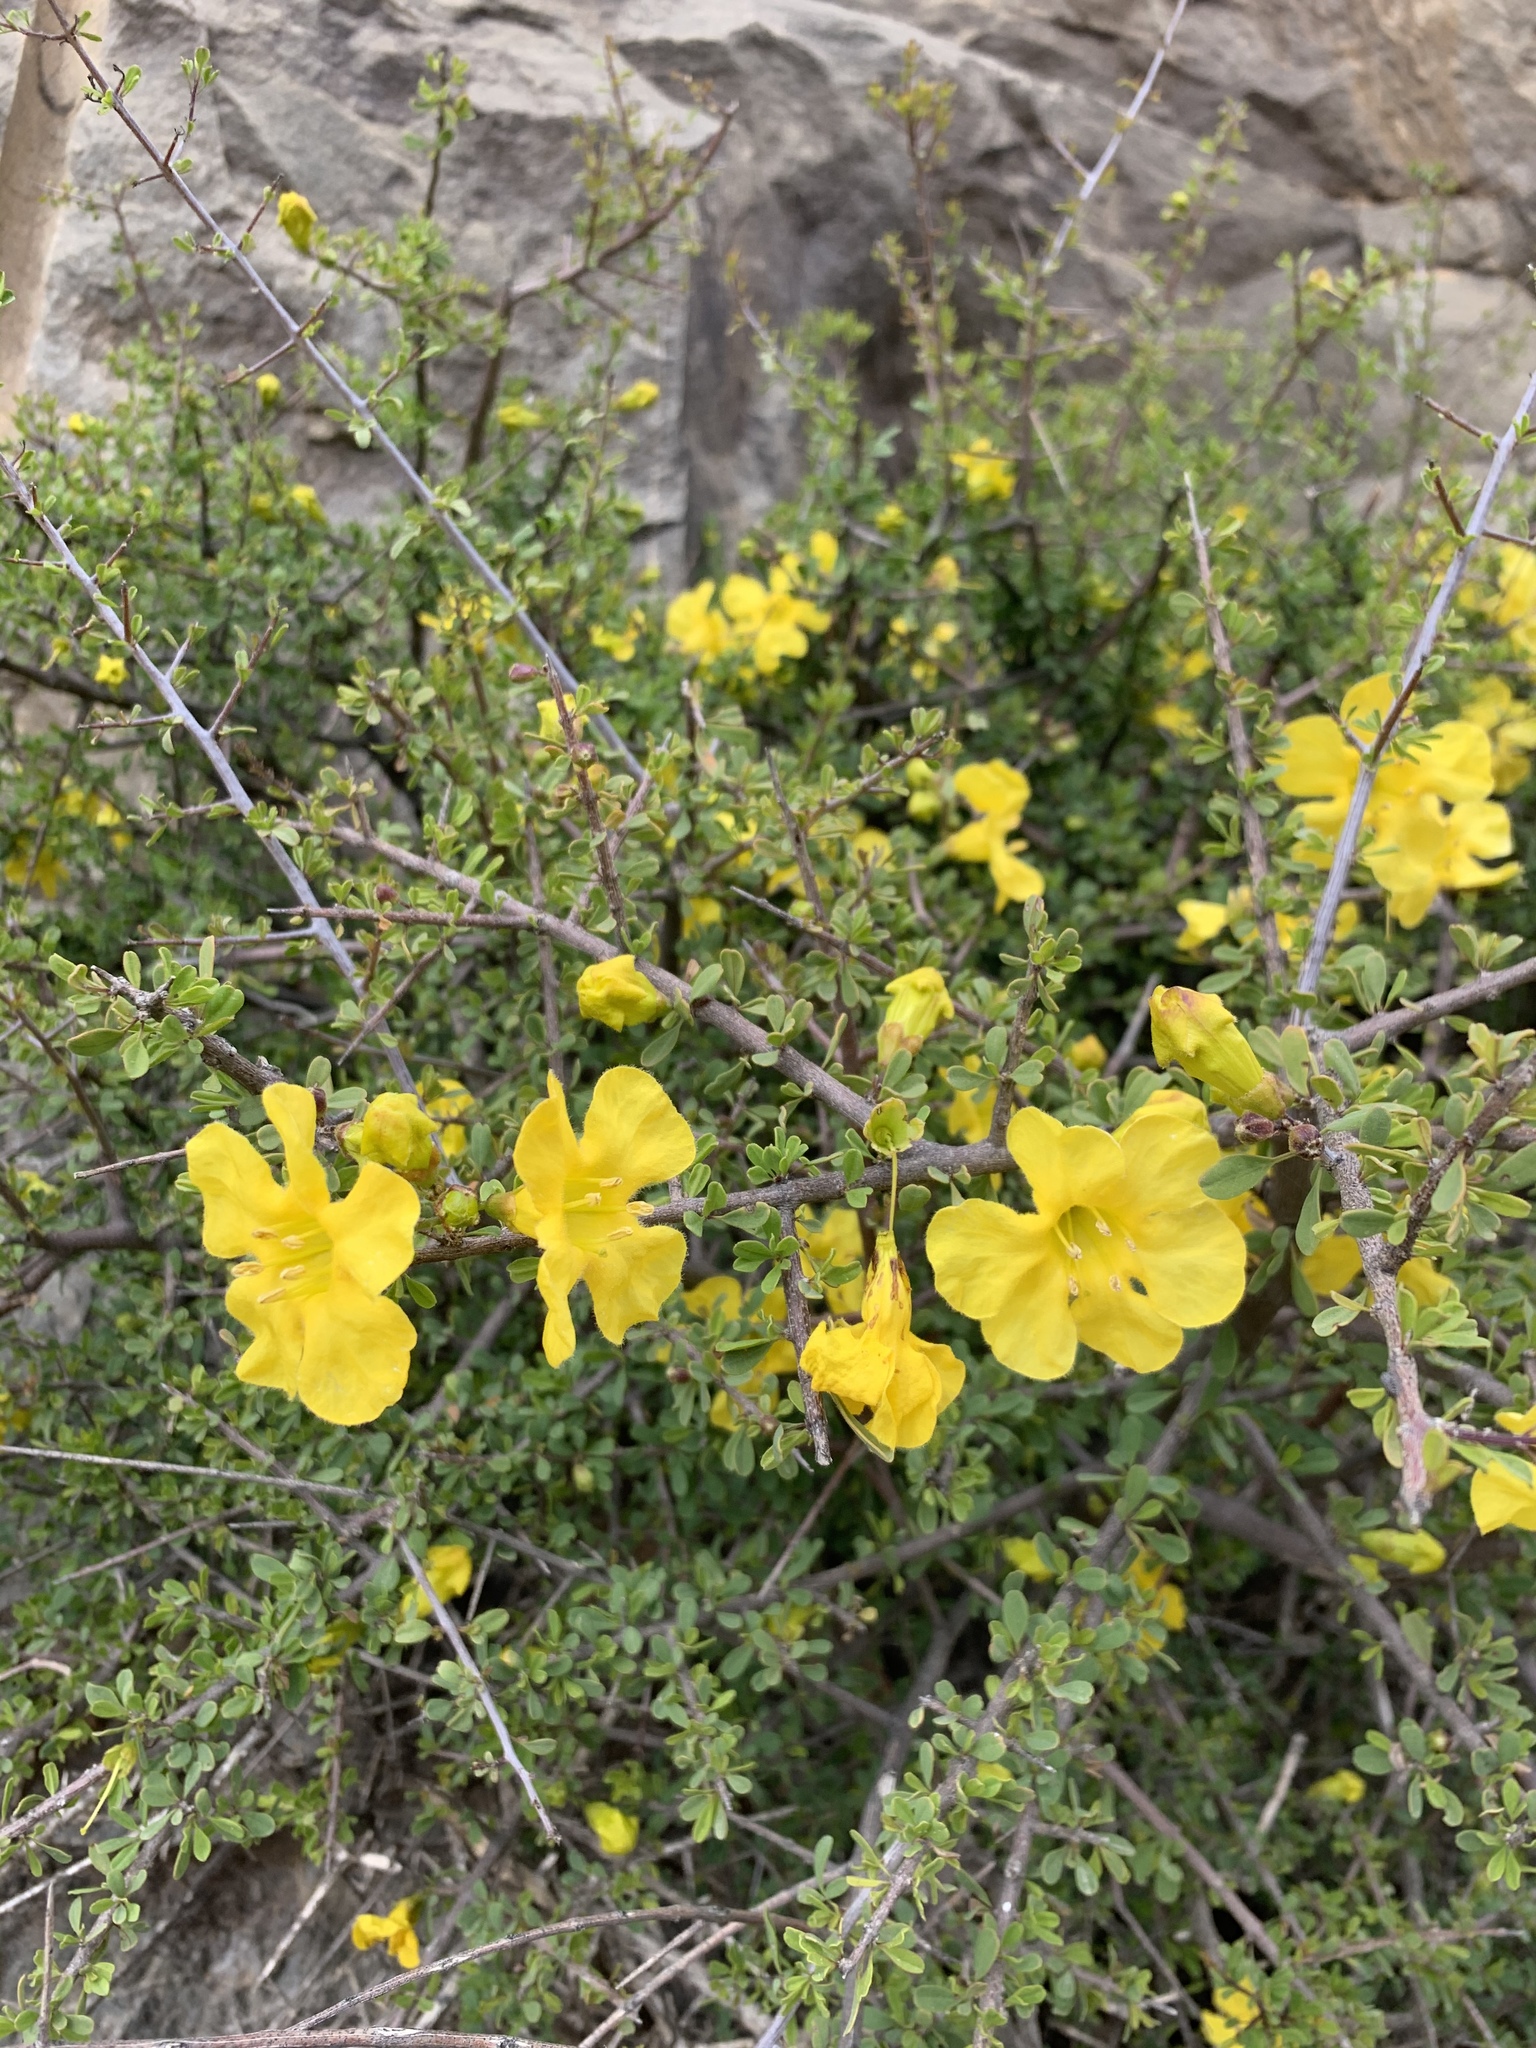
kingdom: Plantae
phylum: Tracheophyta
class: Magnoliopsida
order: Lamiales
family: Bignoniaceae
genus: Rhigozum
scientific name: Rhigozum obovatum
